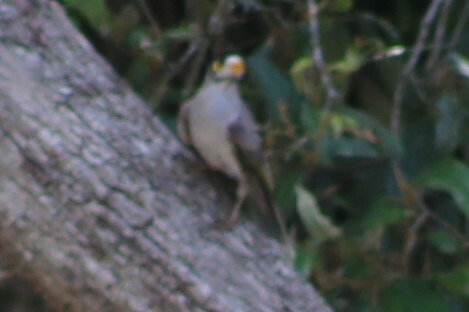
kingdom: Animalia
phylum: Chordata
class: Aves
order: Passeriformes
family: Meliphagidae
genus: Manorina
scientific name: Manorina melanocephala
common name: Noisy miner
